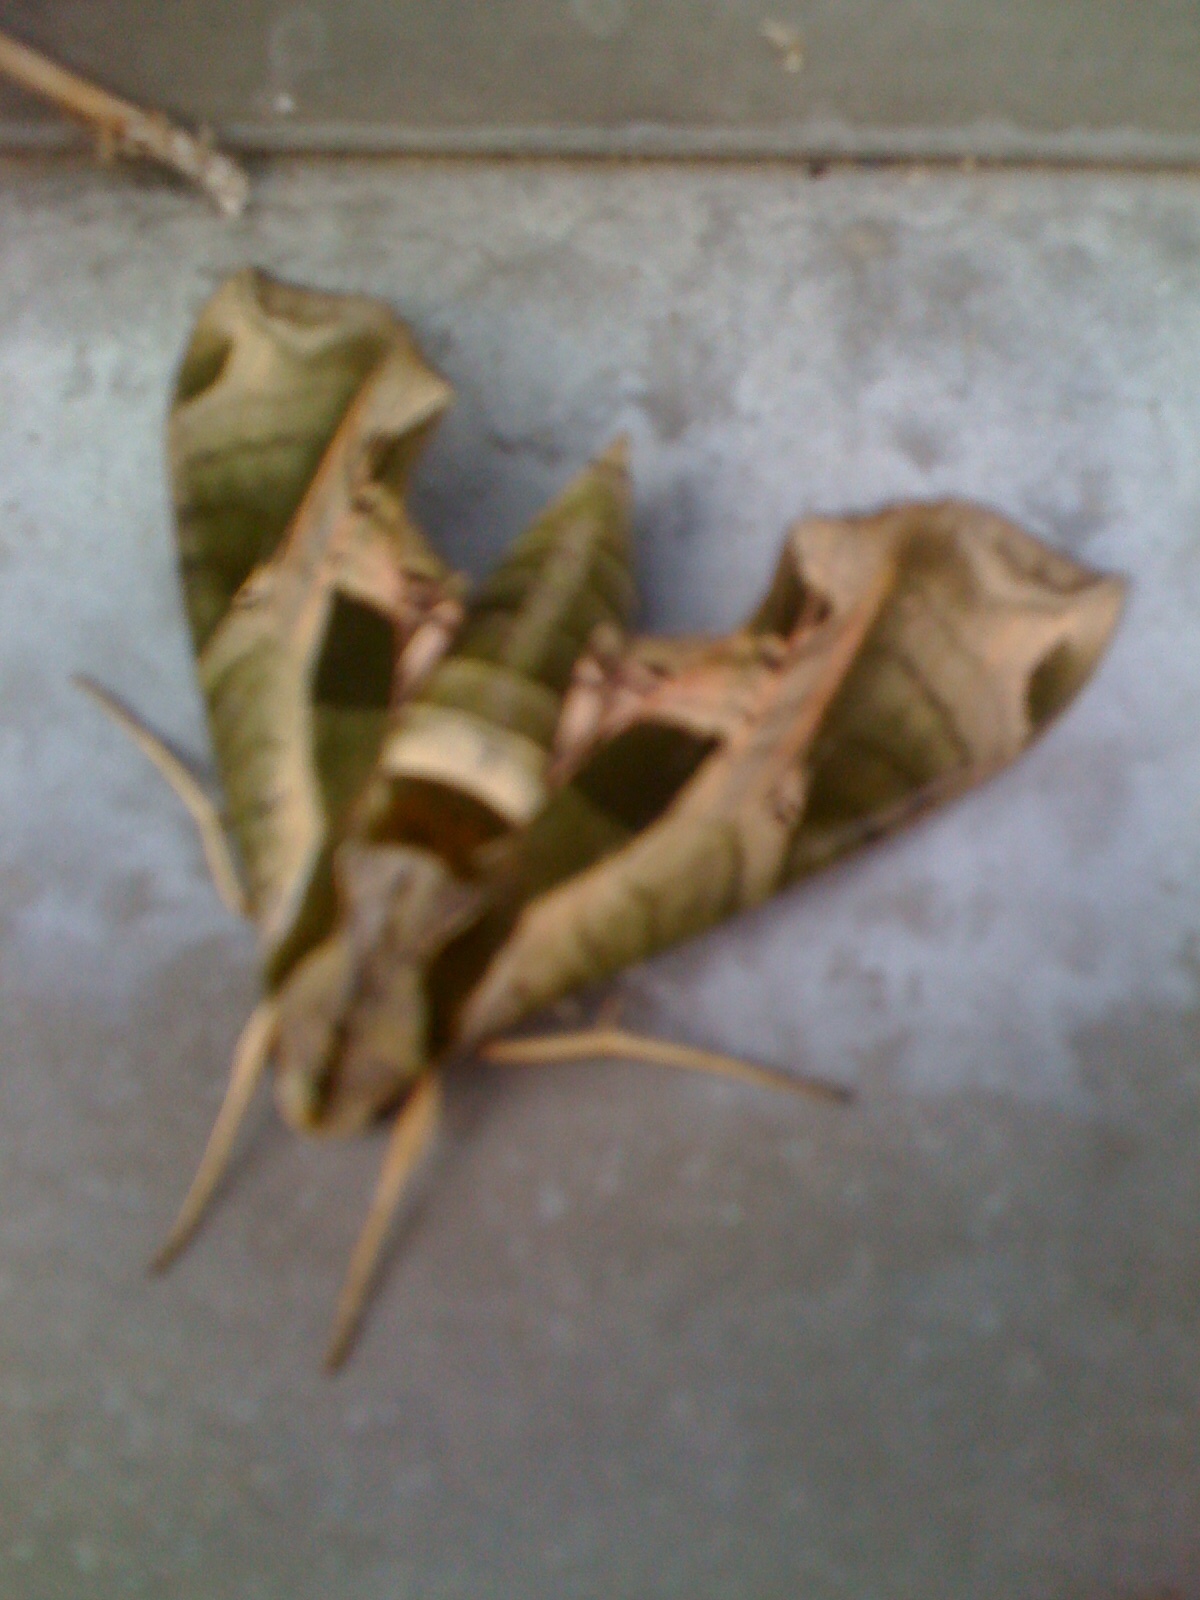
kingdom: Animalia
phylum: Arthropoda
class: Insecta
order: Lepidoptera
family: Sphingidae
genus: Eumorpha
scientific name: Eumorpha pandorus
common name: Pandora sphinx
